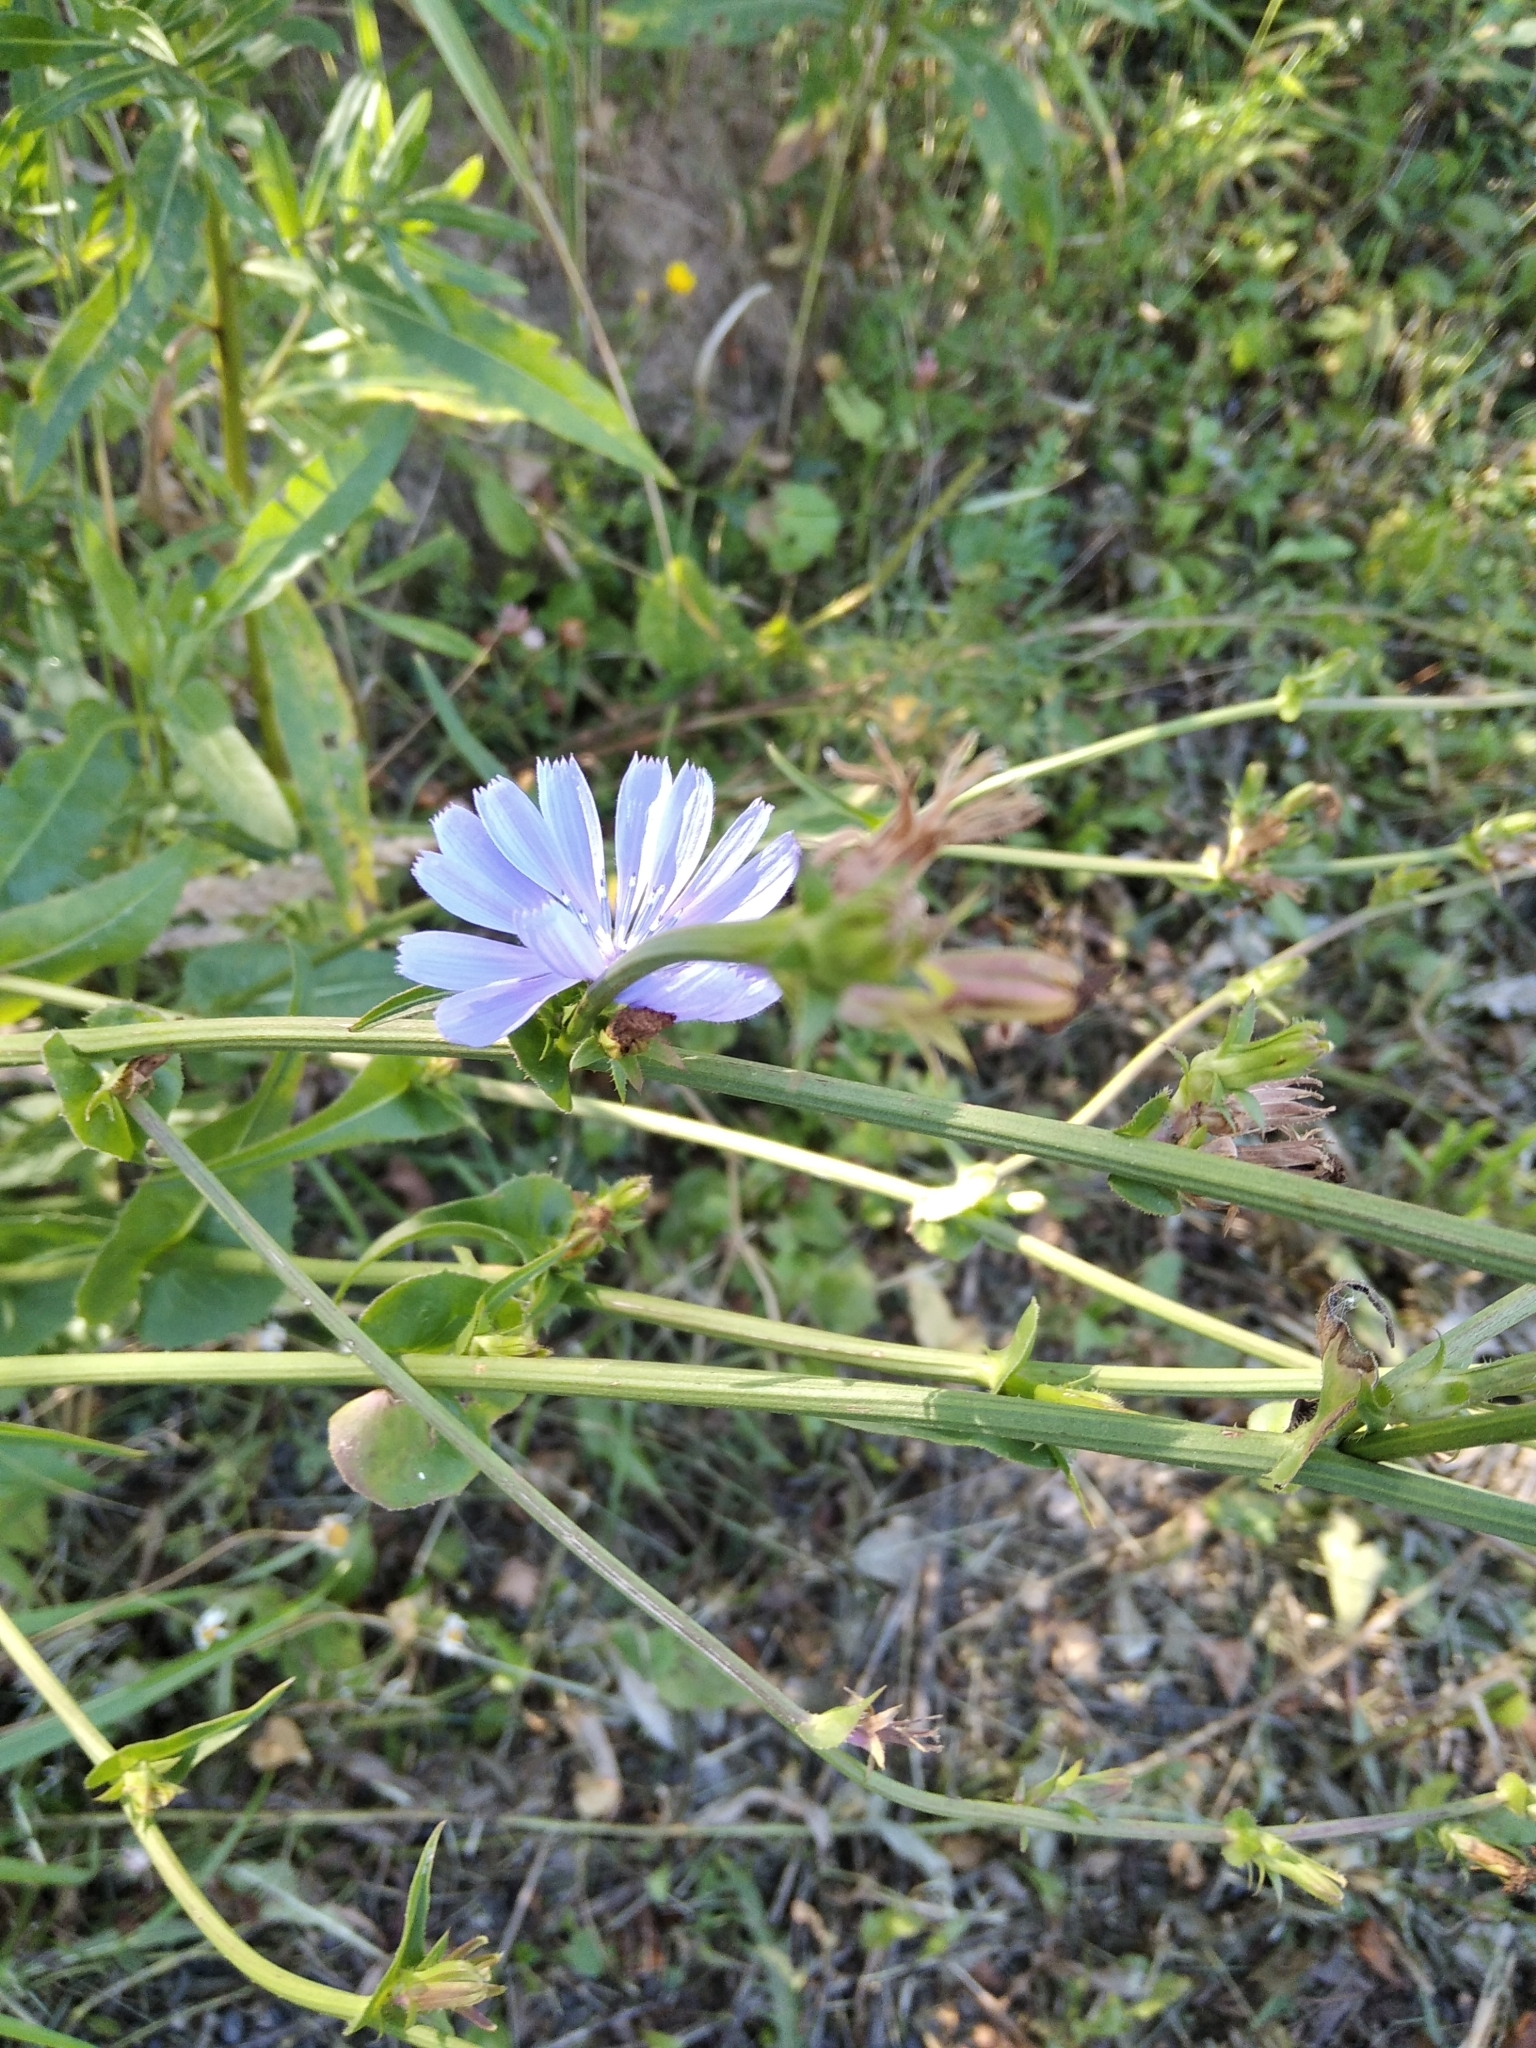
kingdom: Plantae
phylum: Tracheophyta
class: Magnoliopsida
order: Asterales
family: Asteraceae
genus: Cichorium
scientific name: Cichorium intybus
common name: Chicory
